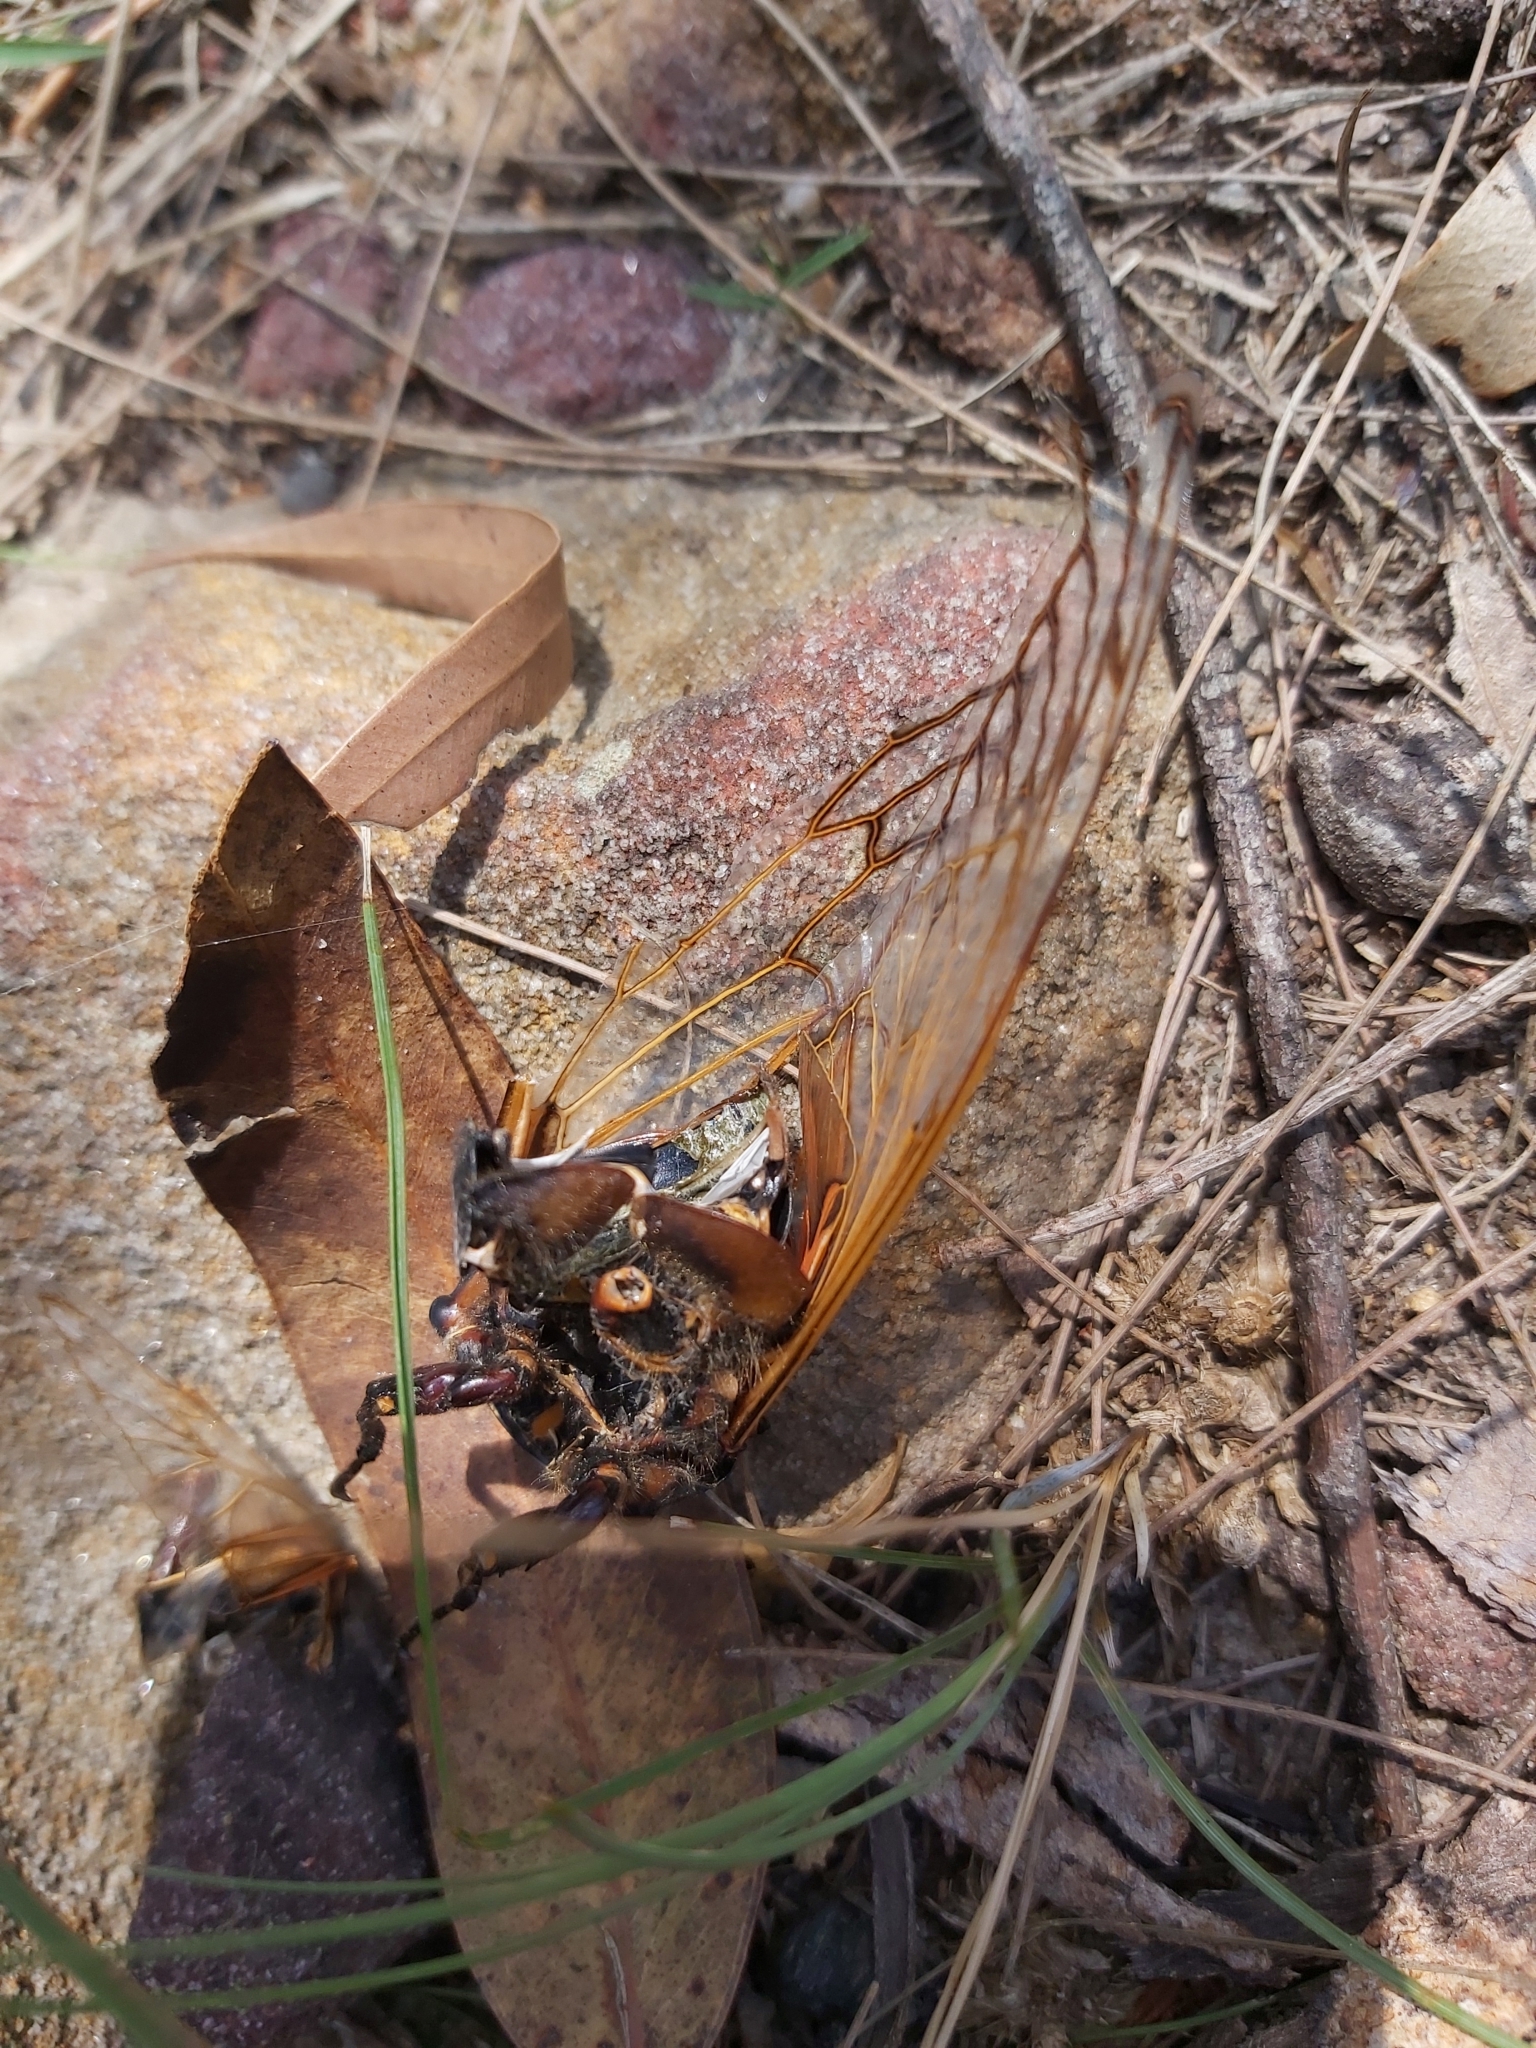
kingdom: Animalia
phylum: Arthropoda
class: Insecta
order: Hemiptera
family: Cicadidae
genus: Macrotristria
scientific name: Macrotristria angularis
